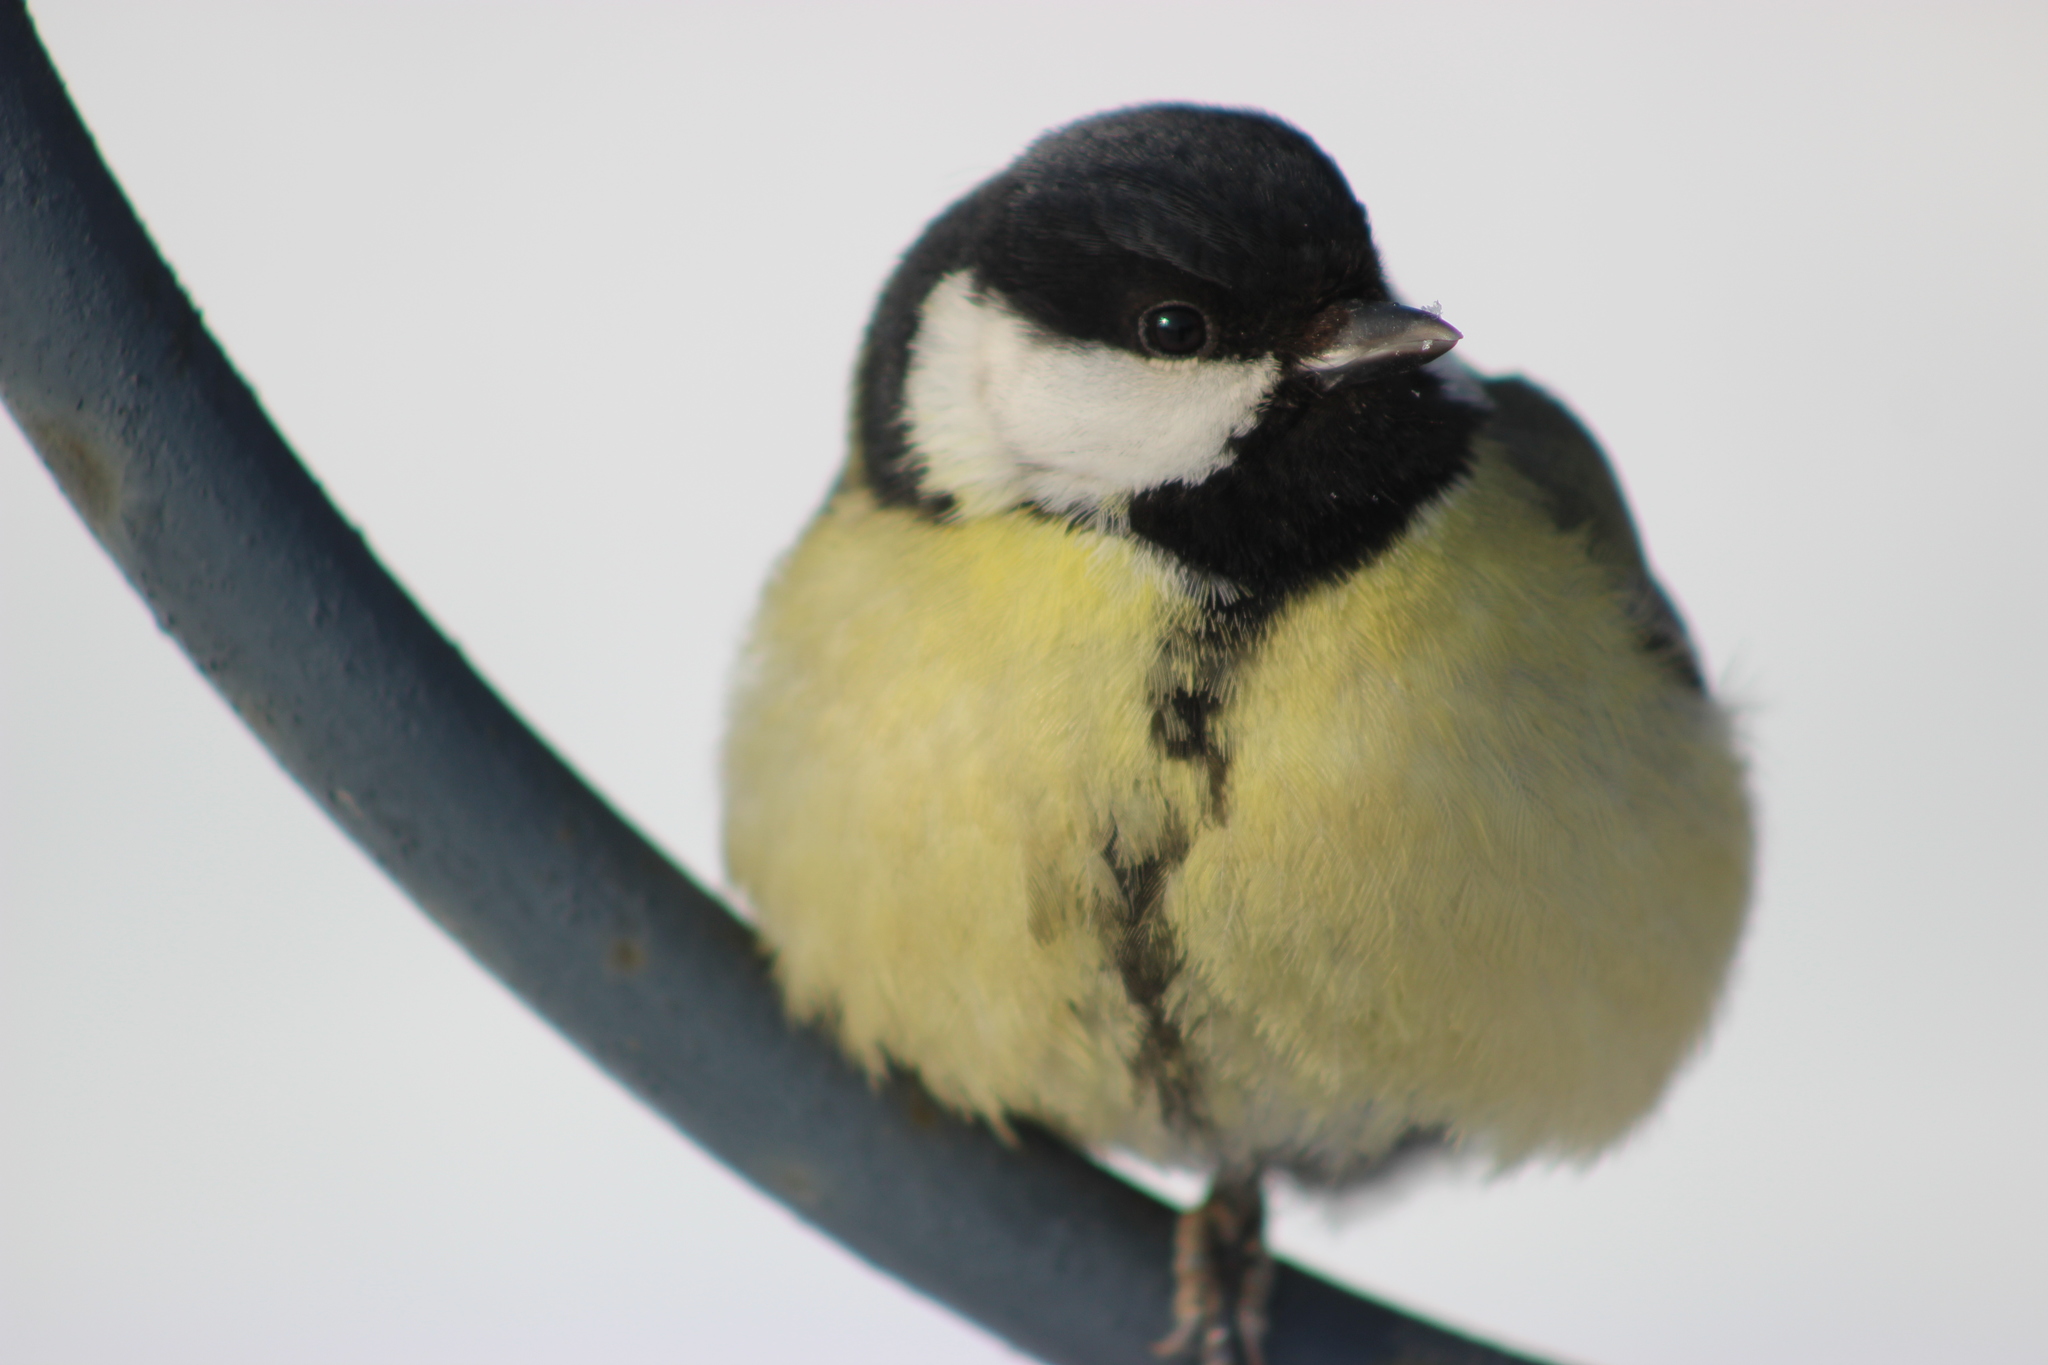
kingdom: Animalia
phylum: Chordata
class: Aves
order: Passeriformes
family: Paridae
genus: Parus
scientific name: Parus major
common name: Great tit
